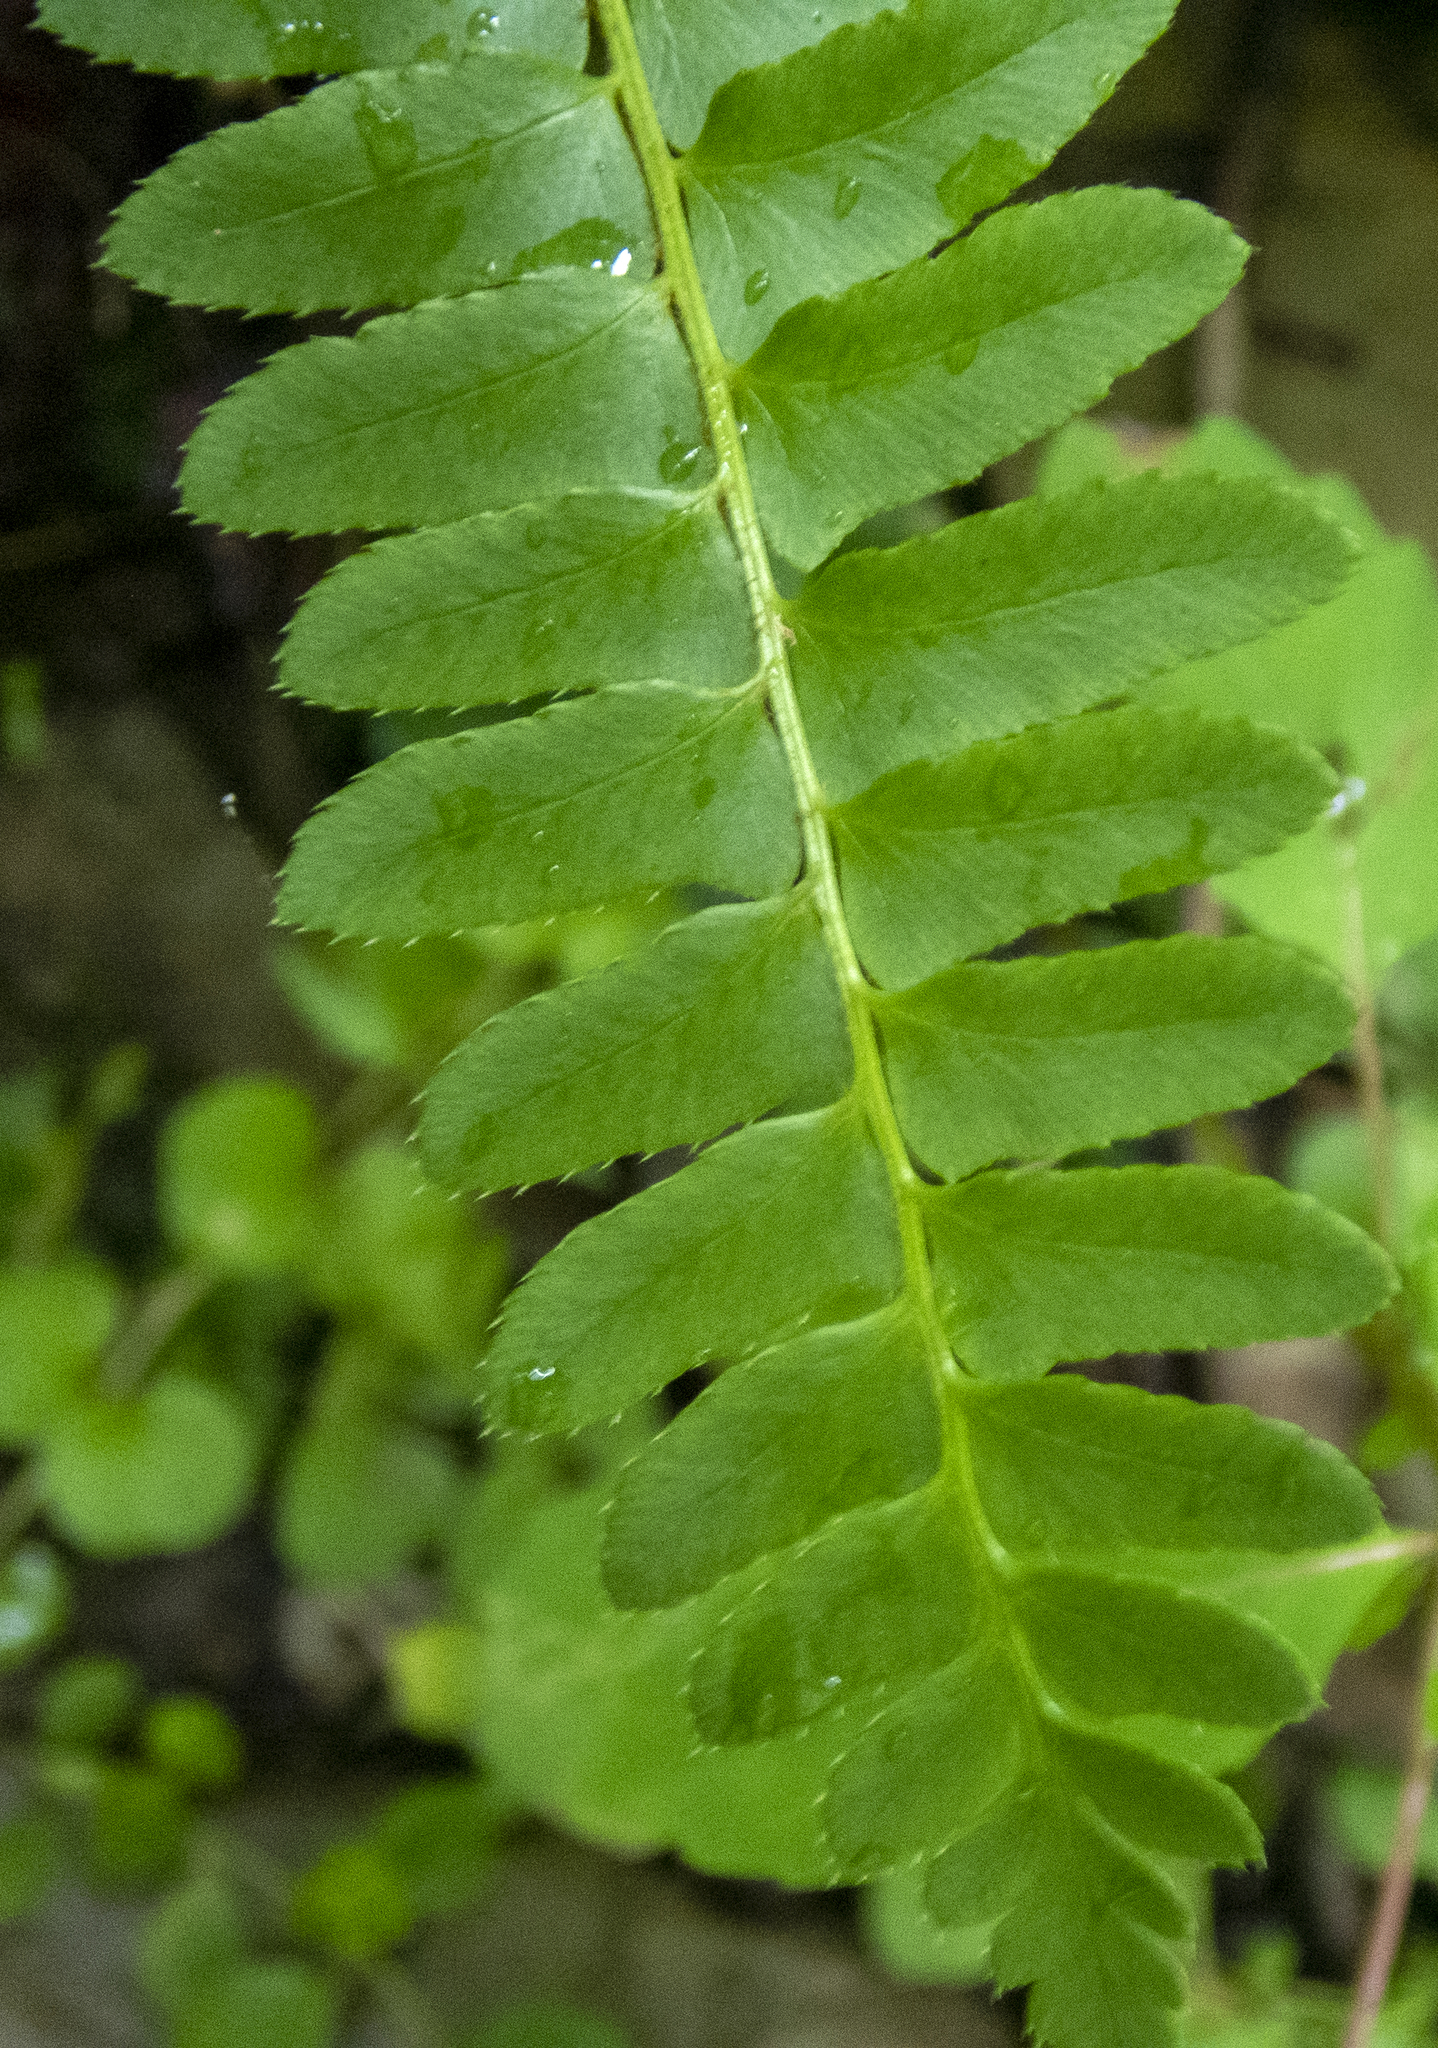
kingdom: Plantae
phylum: Tracheophyta
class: Polypodiopsida
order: Polypodiales
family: Dryopteridaceae
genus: Polystichum
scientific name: Polystichum acrostichoides
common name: Christmas fern
